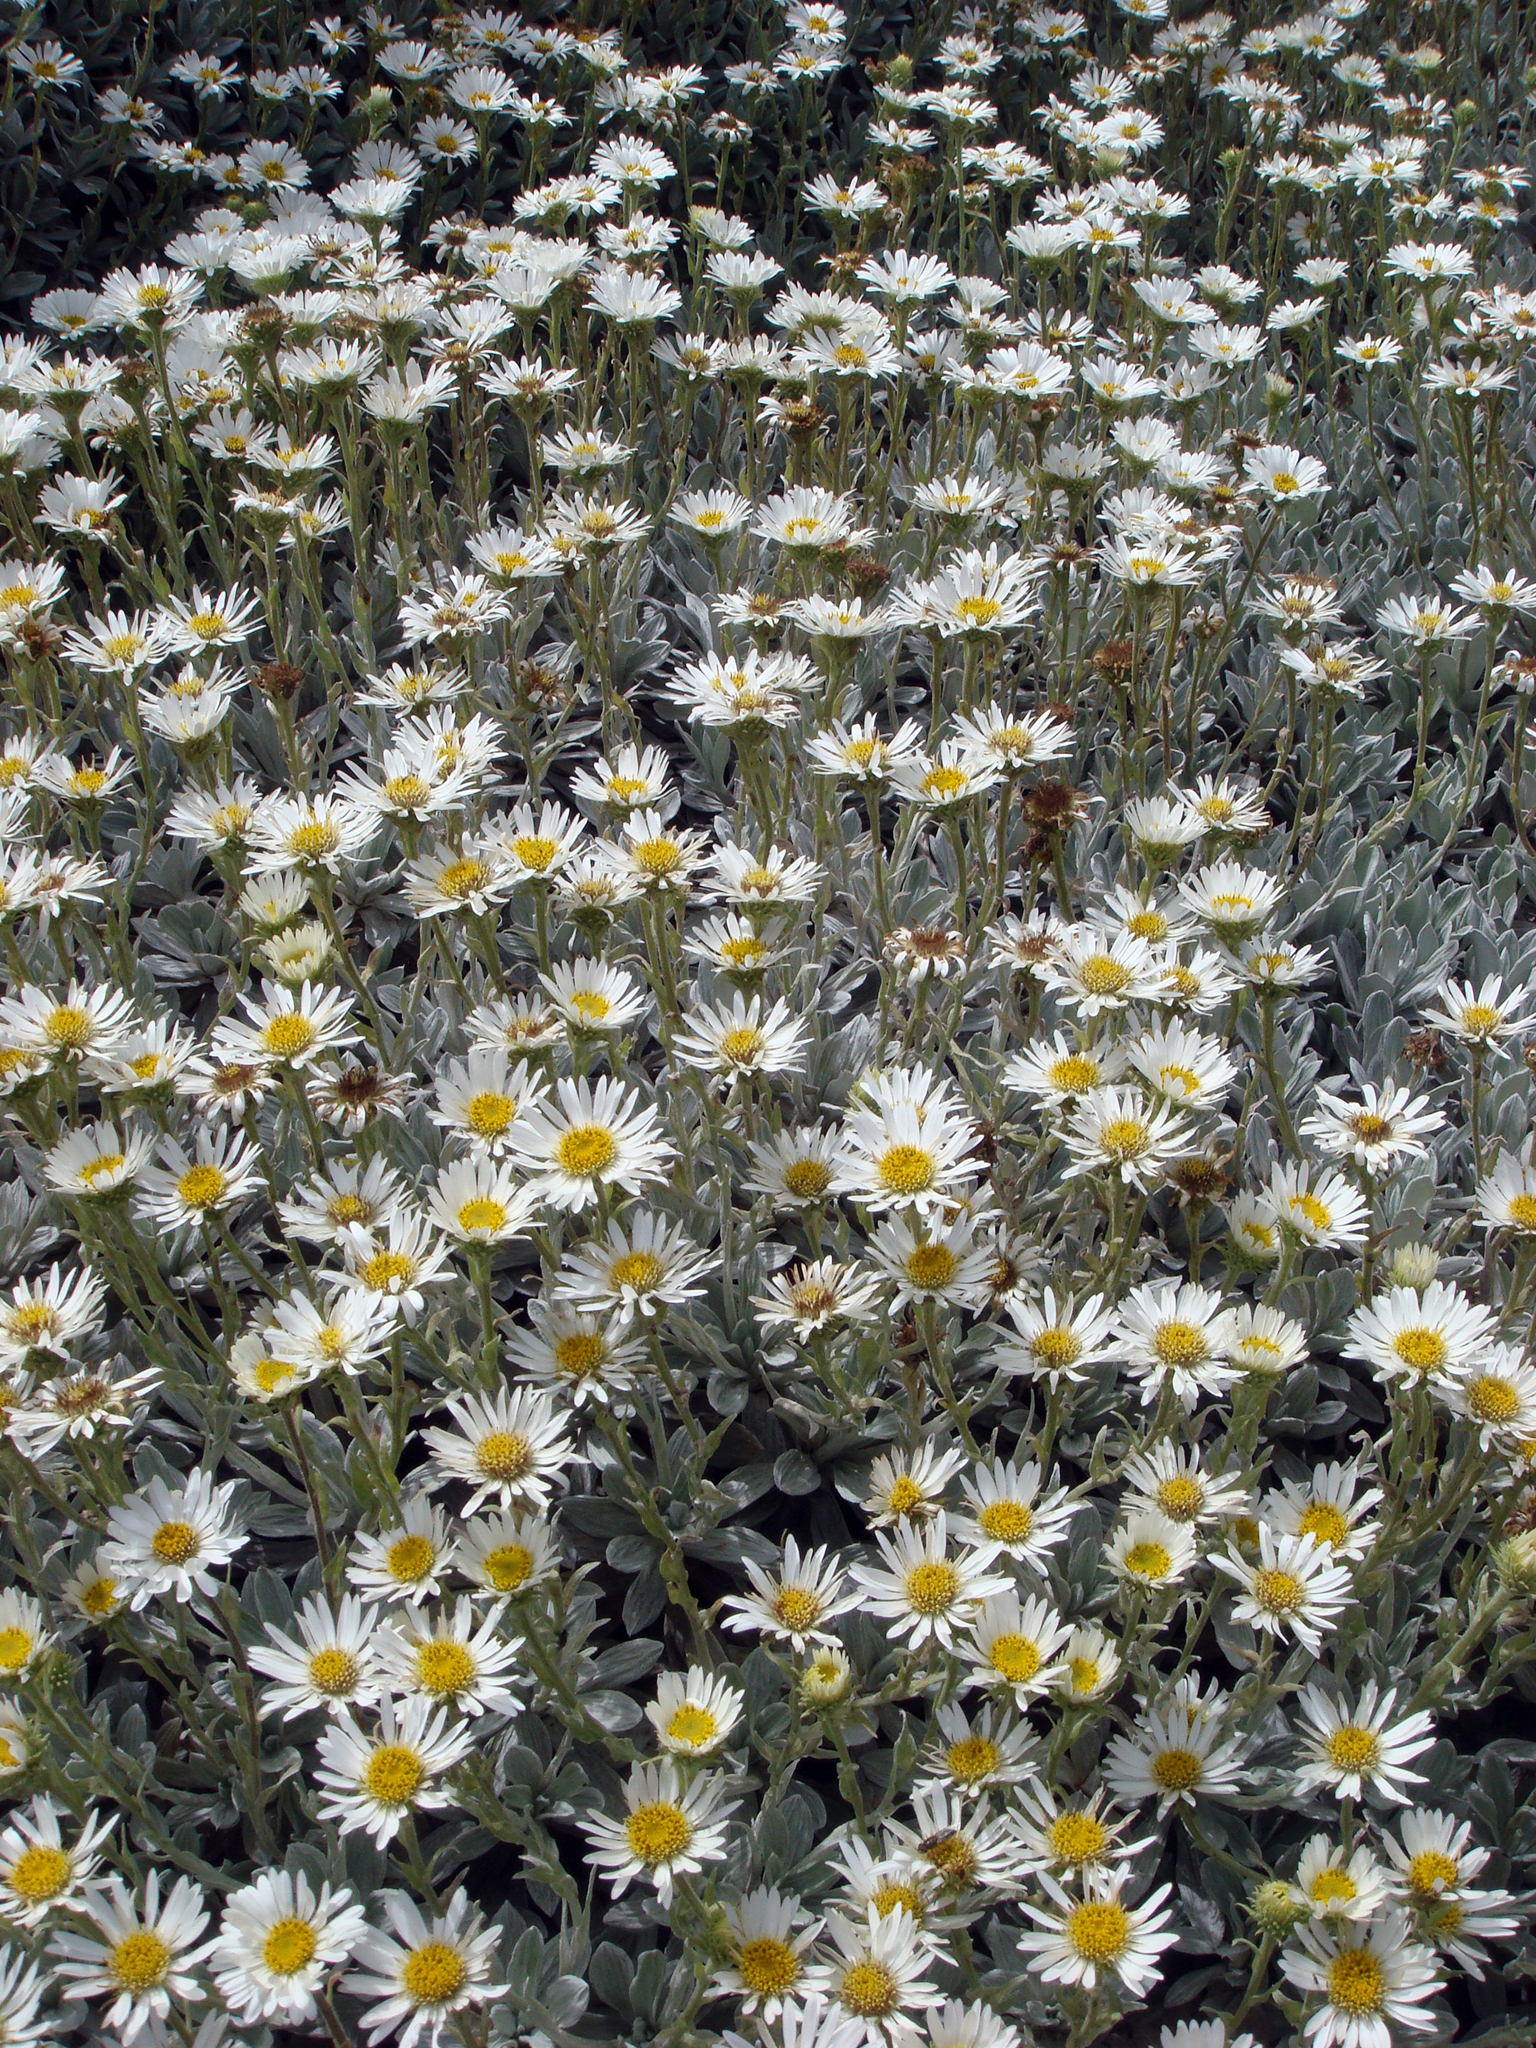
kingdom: Plantae
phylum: Tracheophyta
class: Magnoliopsida
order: Asterales
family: Asteraceae
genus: Celmisia
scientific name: Celmisia incana
